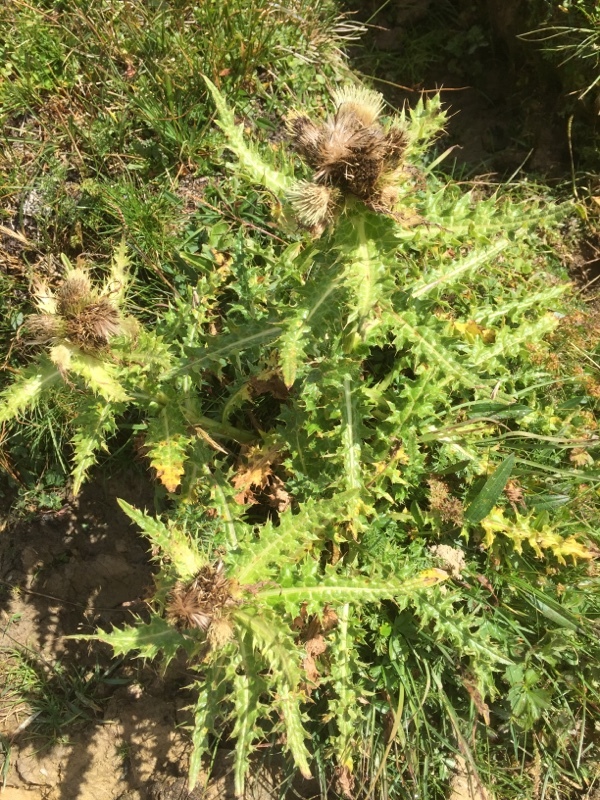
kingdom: Plantae
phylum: Tracheophyta
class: Magnoliopsida
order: Asterales
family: Asteraceae
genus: Cirsium
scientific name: Cirsium spinosissimum
